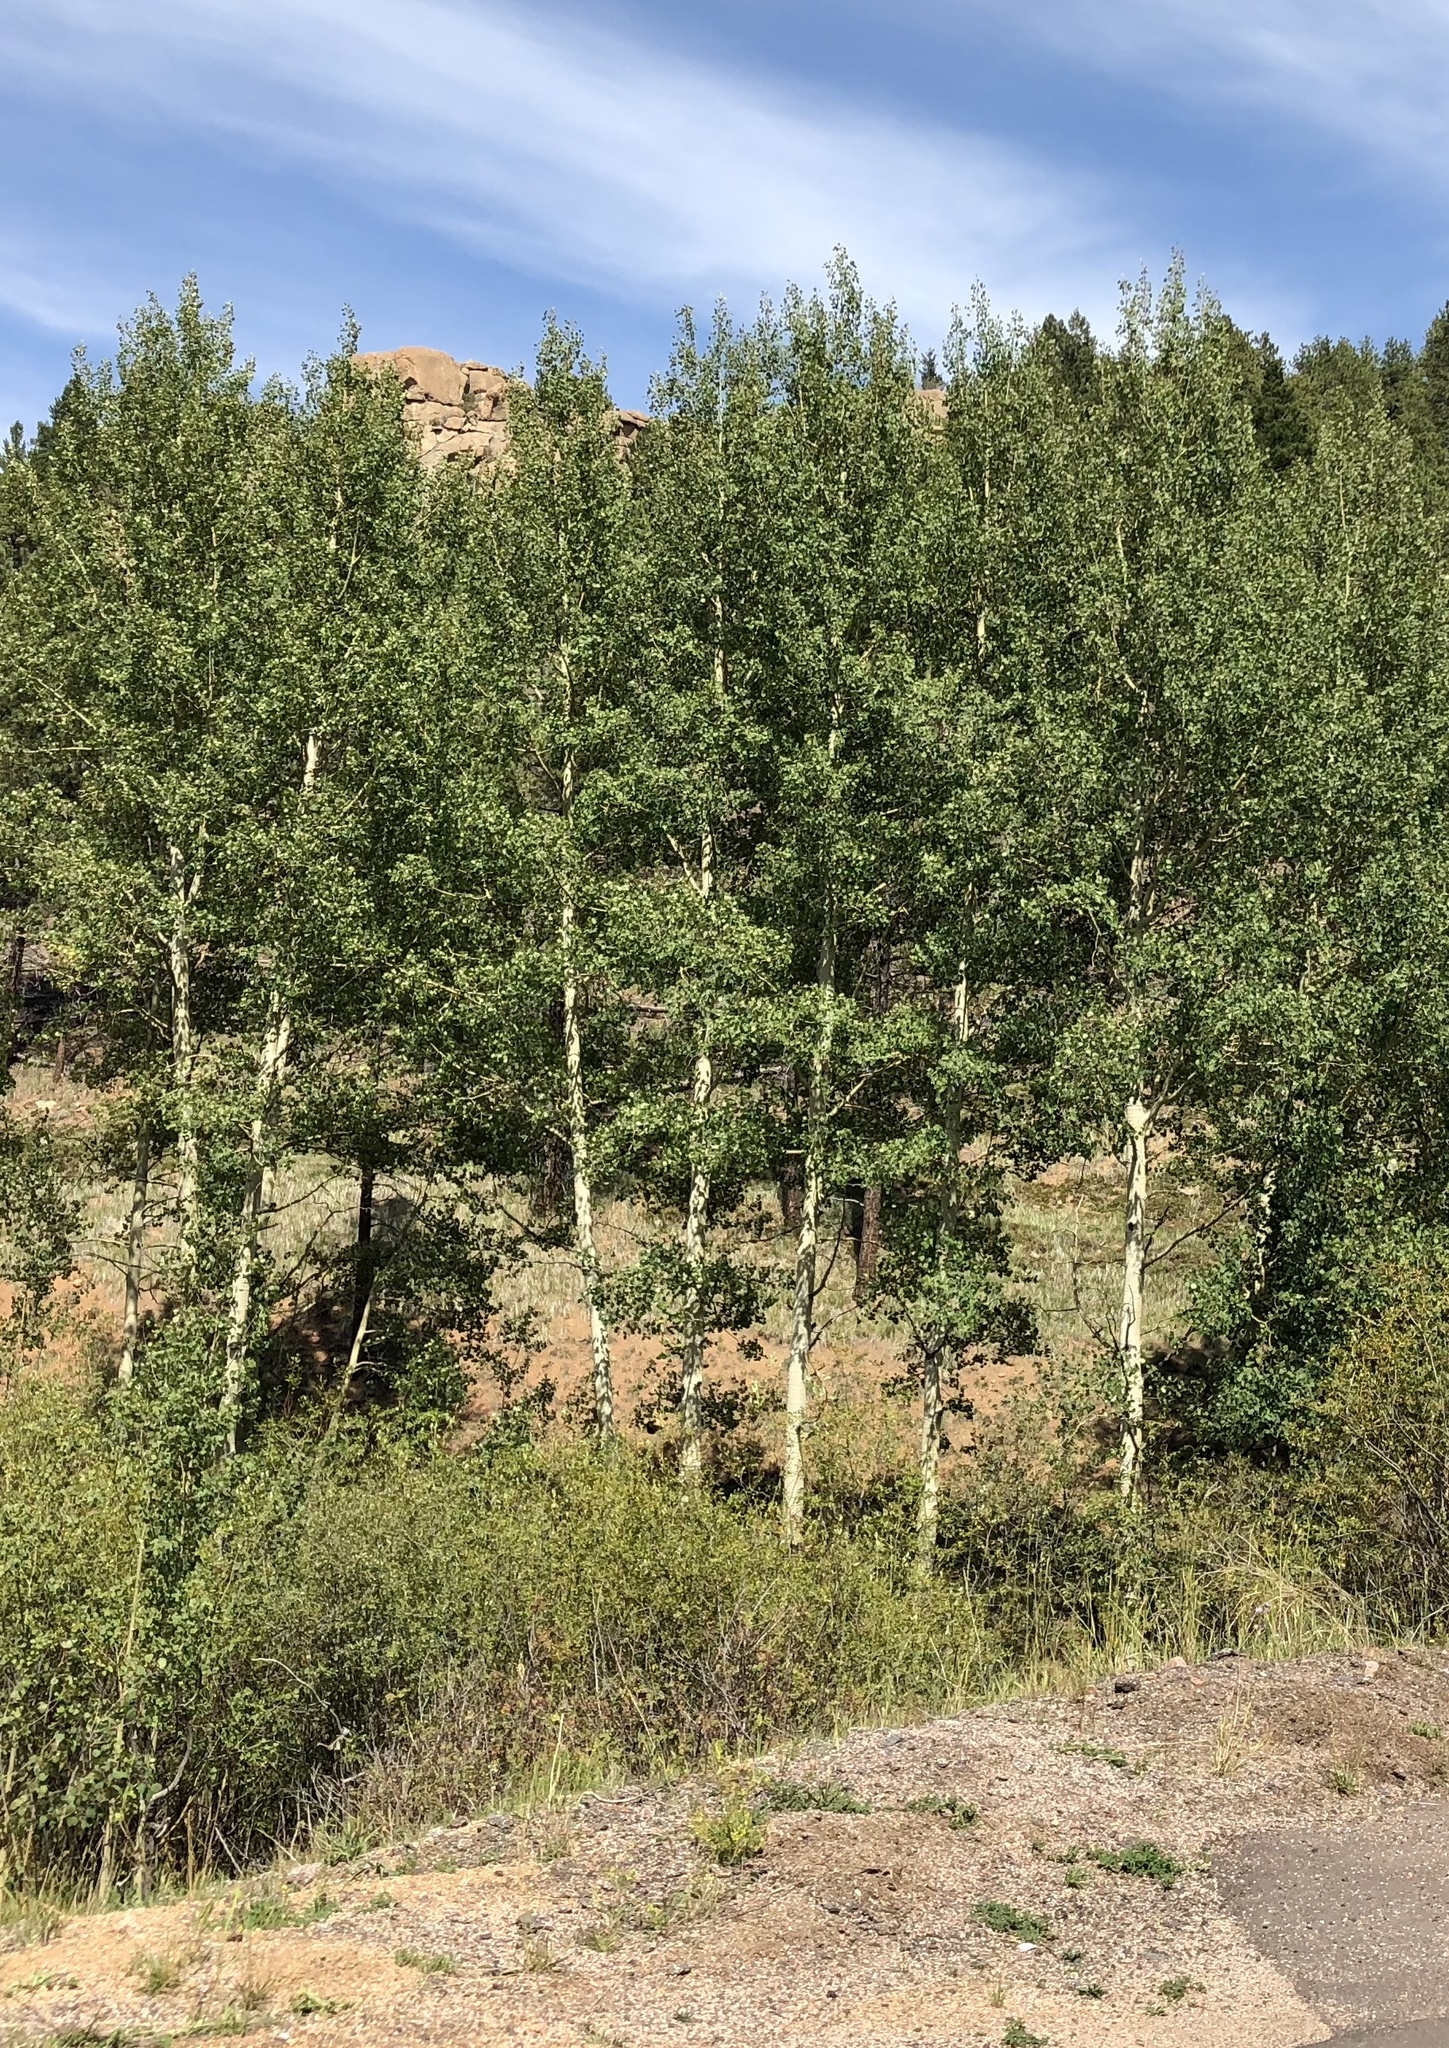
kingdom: Plantae
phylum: Tracheophyta
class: Magnoliopsida
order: Malpighiales
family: Salicaceae
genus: Populus
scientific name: Populus tremuloides
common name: Quaking aspen
